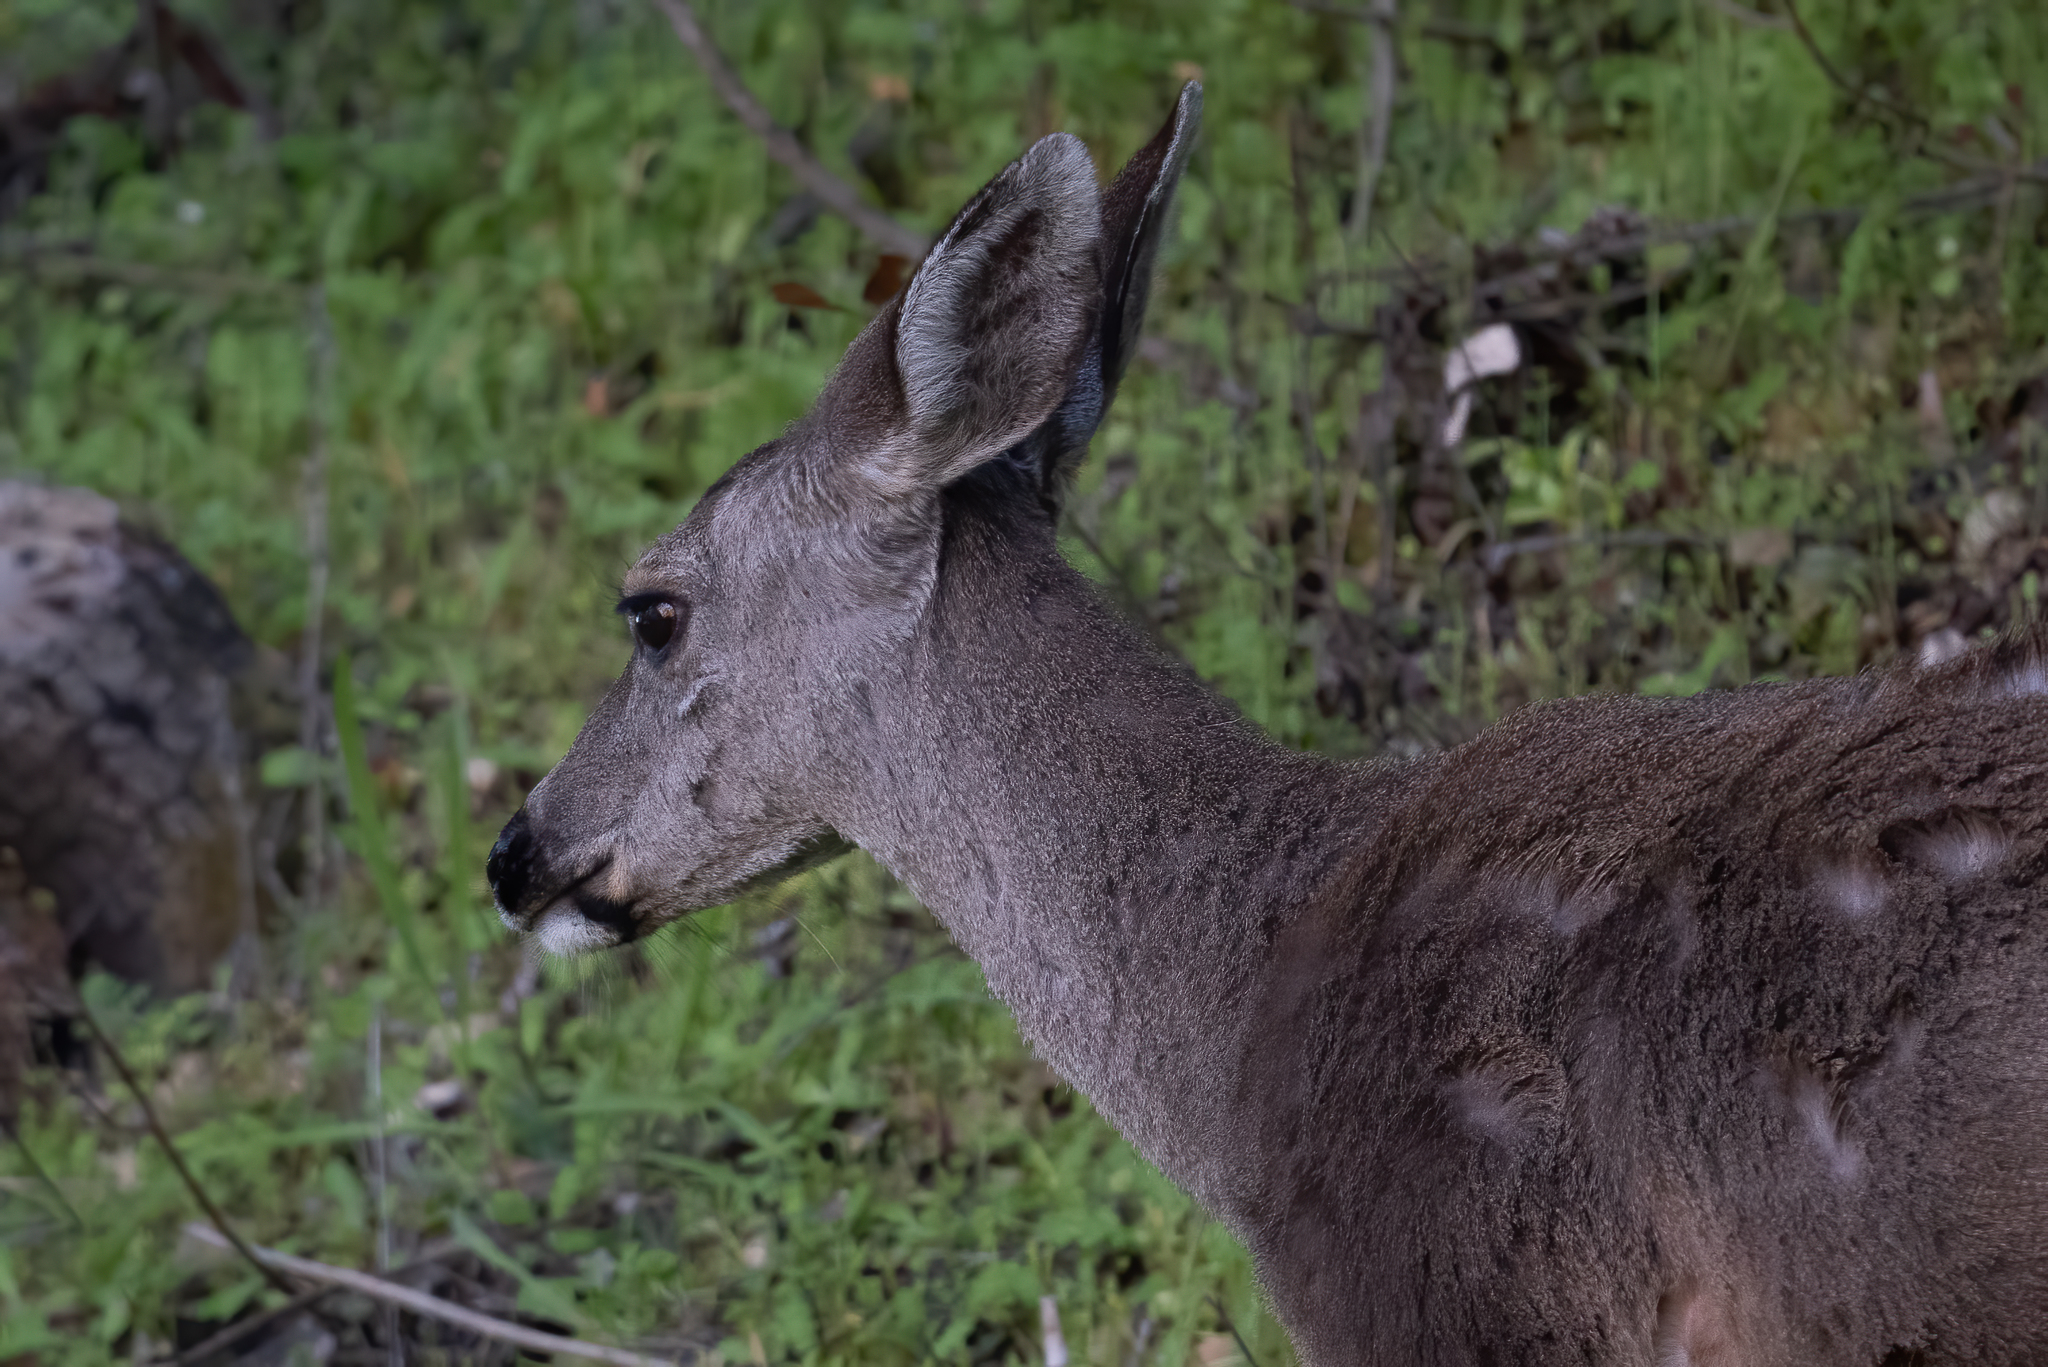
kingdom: Animalia
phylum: Chordata
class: Mammalia
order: Artiodactyla
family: Cervidae
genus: Odocoileus
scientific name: Odocoileus hemionus
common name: Mule deer
